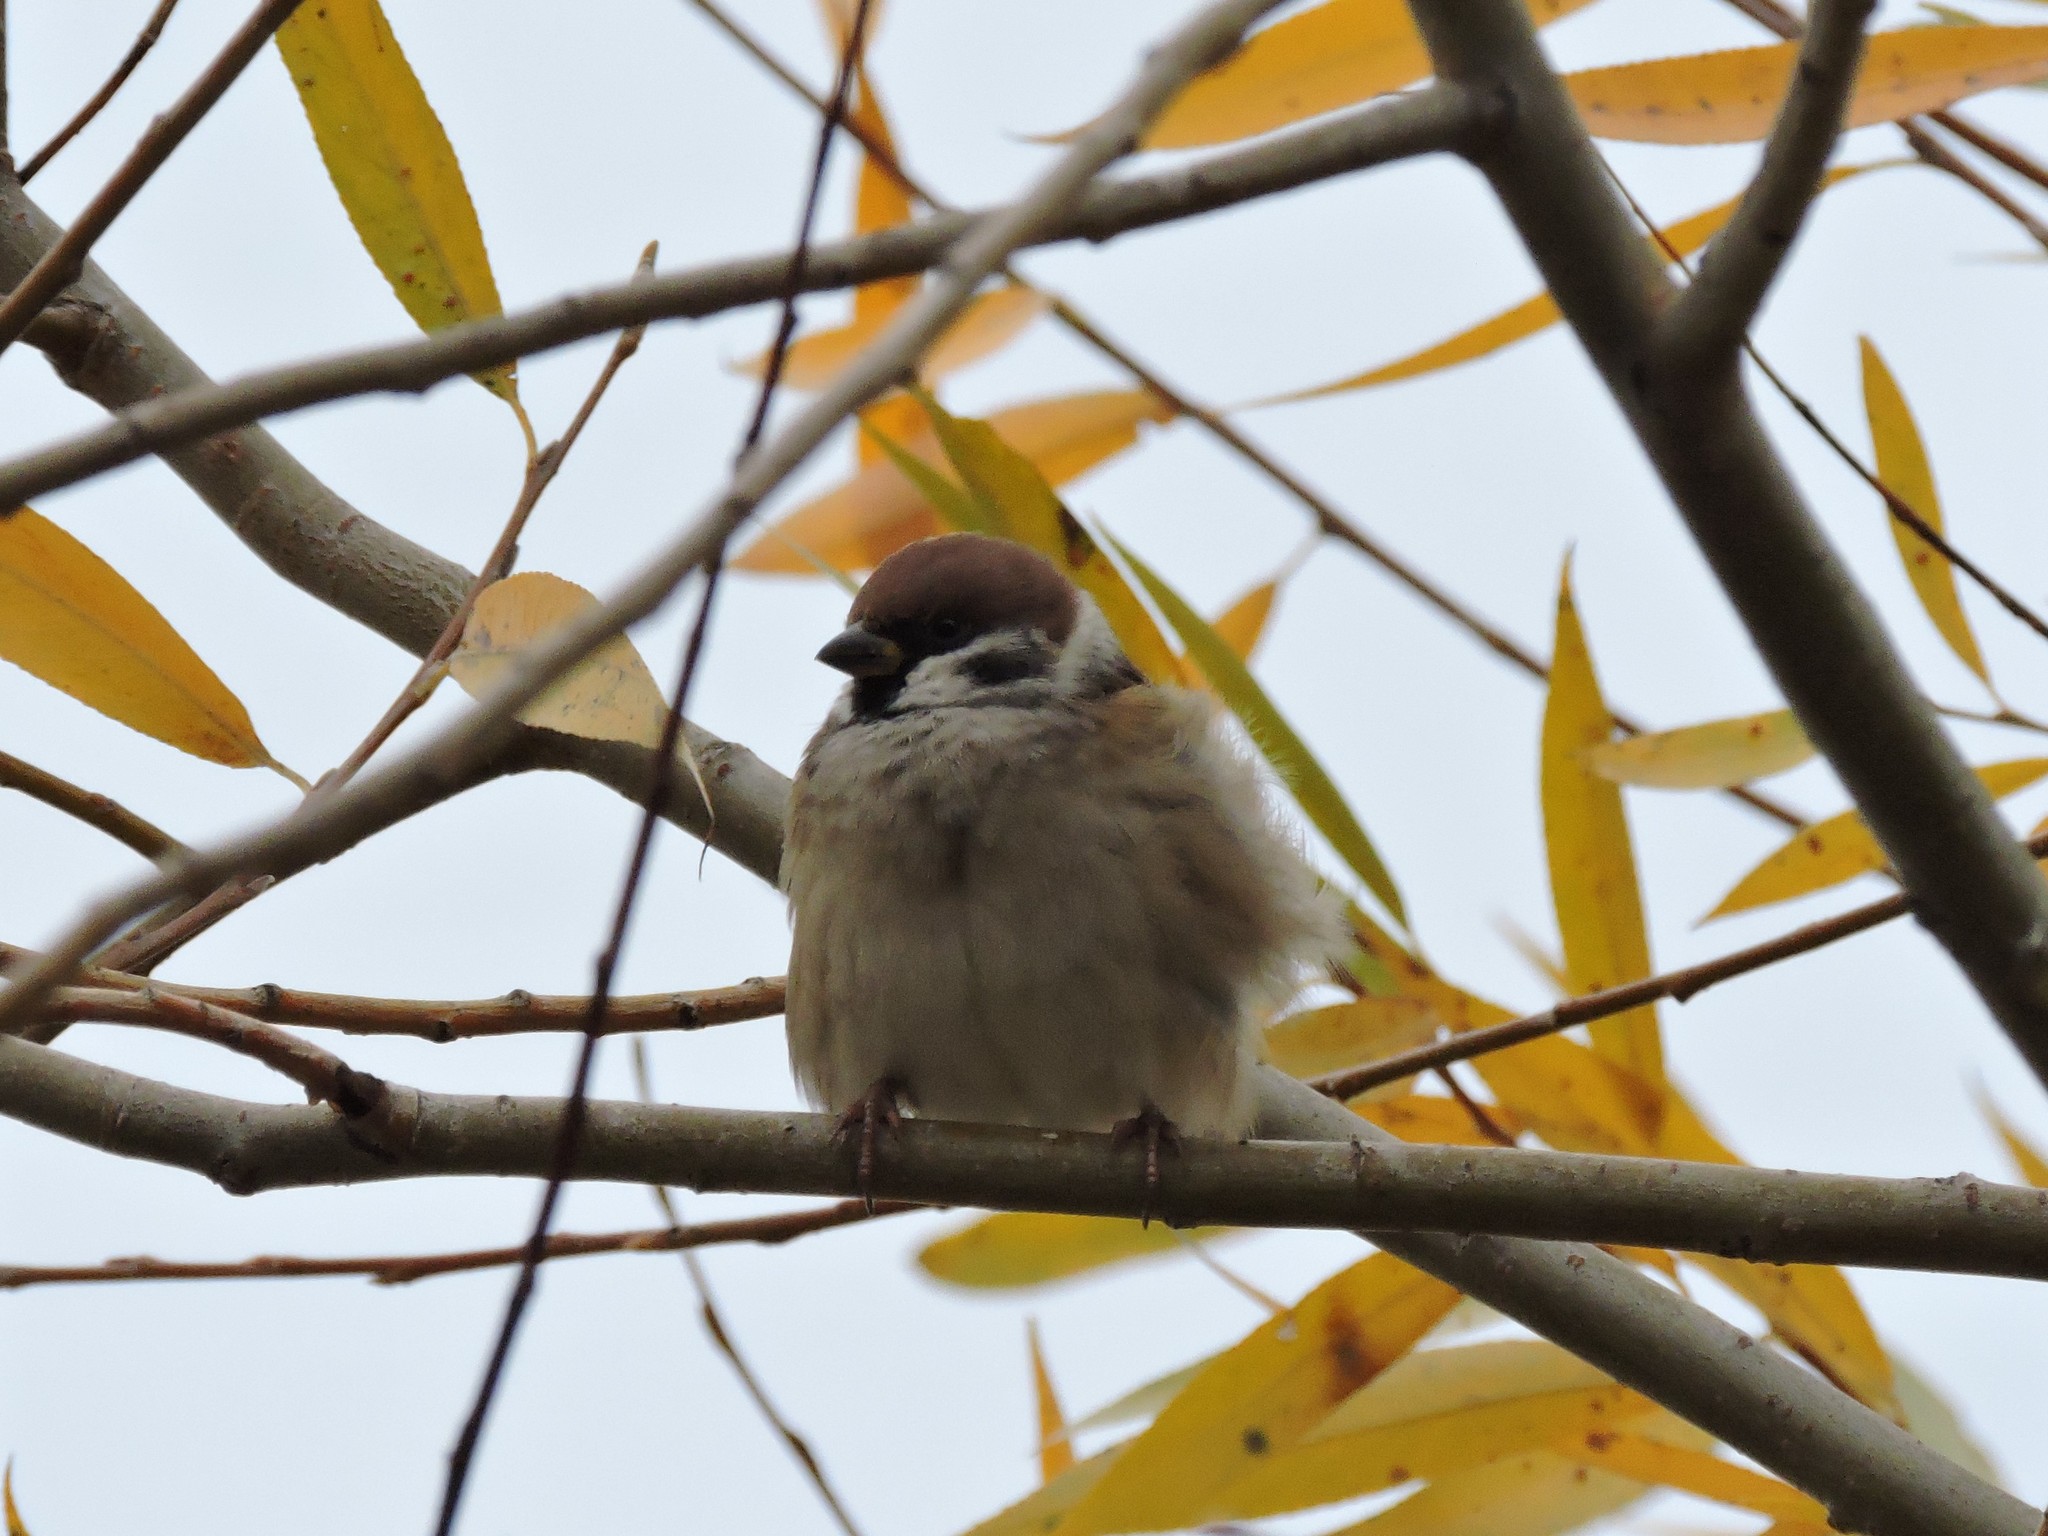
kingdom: Animalia
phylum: Chordata
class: Aves
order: Passeriformes
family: Passeridae
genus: Passer
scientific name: Passer montanus
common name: Eurasian tree sparrow
